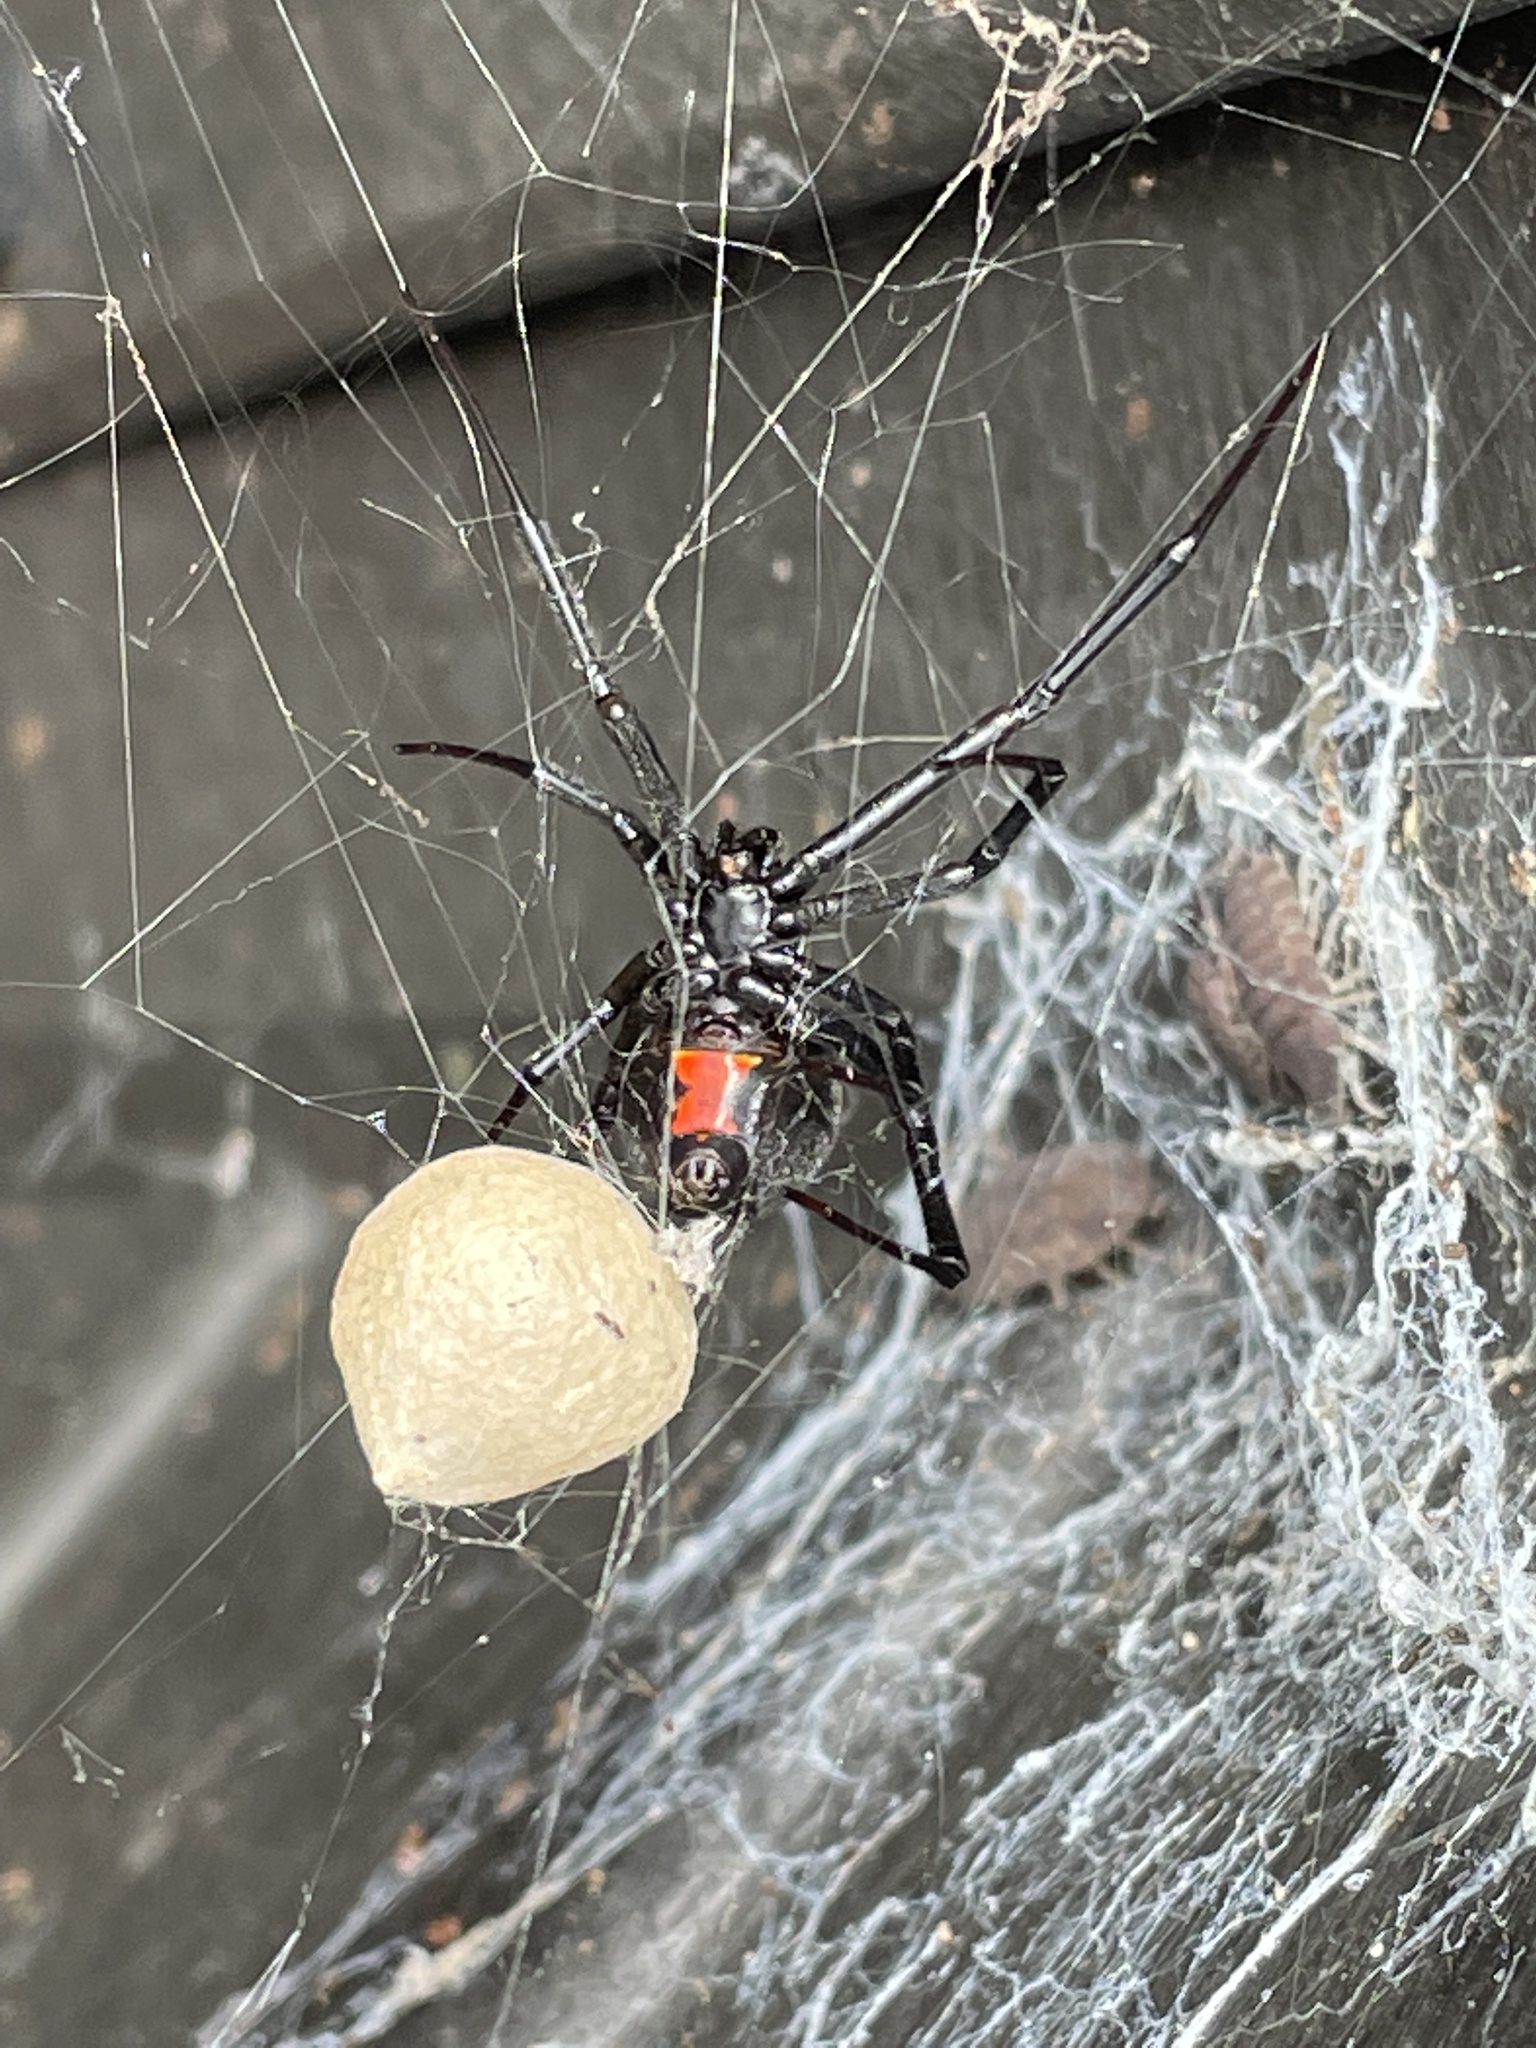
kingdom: Animalia
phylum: Arthropoda
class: Arachnida
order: Araneae
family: Theridiidae
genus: Latrodectus
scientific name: Latrodectus hesperus
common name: Western black widow
